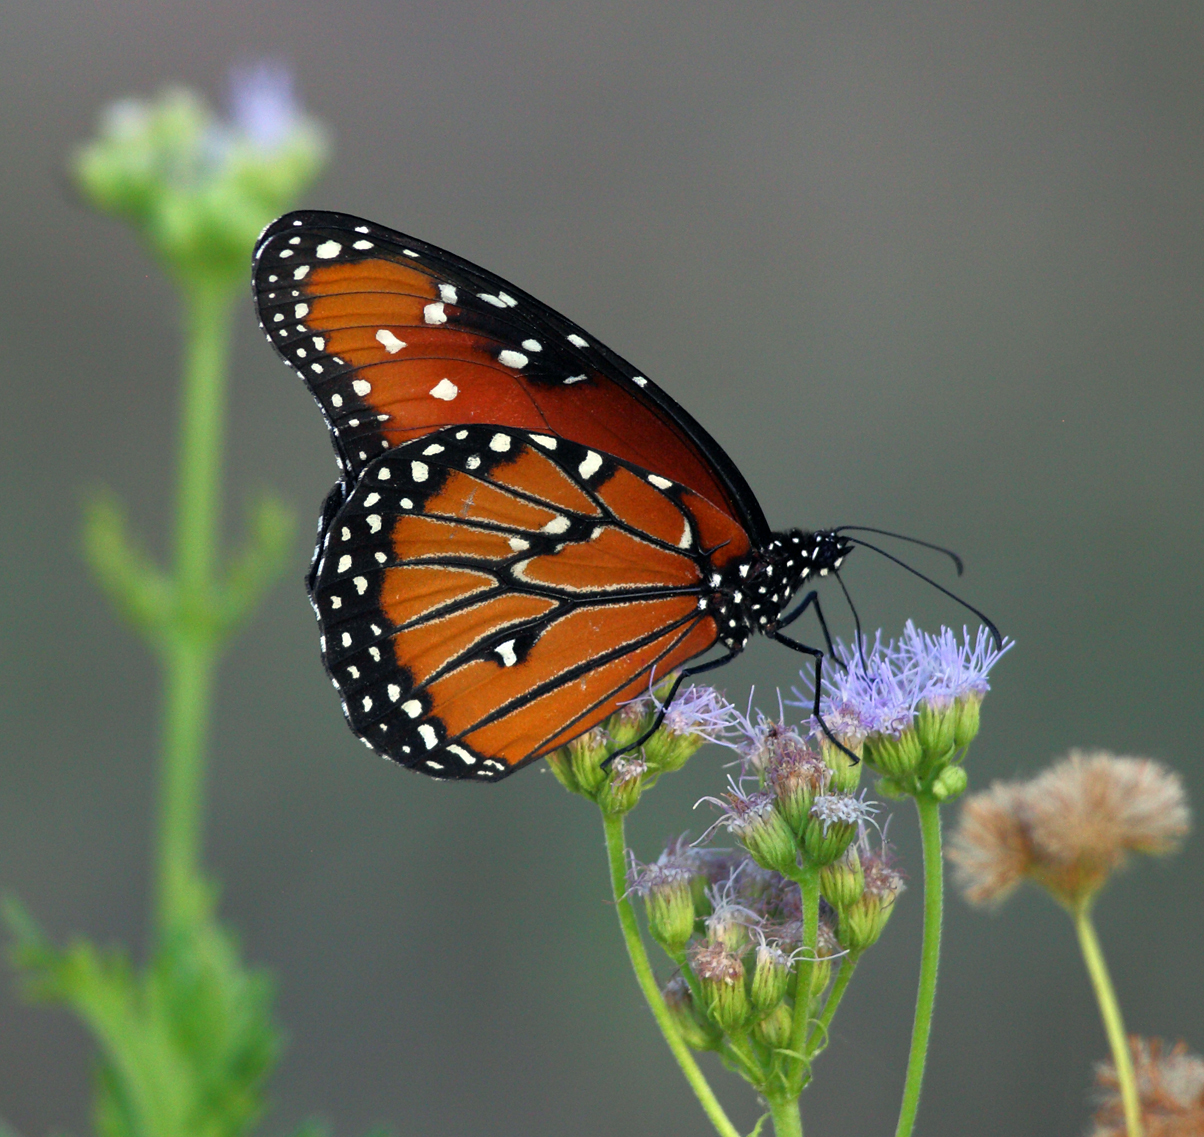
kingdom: Animalia
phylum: Arthropoda
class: Insecta
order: Lepidoptera
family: Nymphalidae
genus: Danaus
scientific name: Danaus gilippus
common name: Queen
